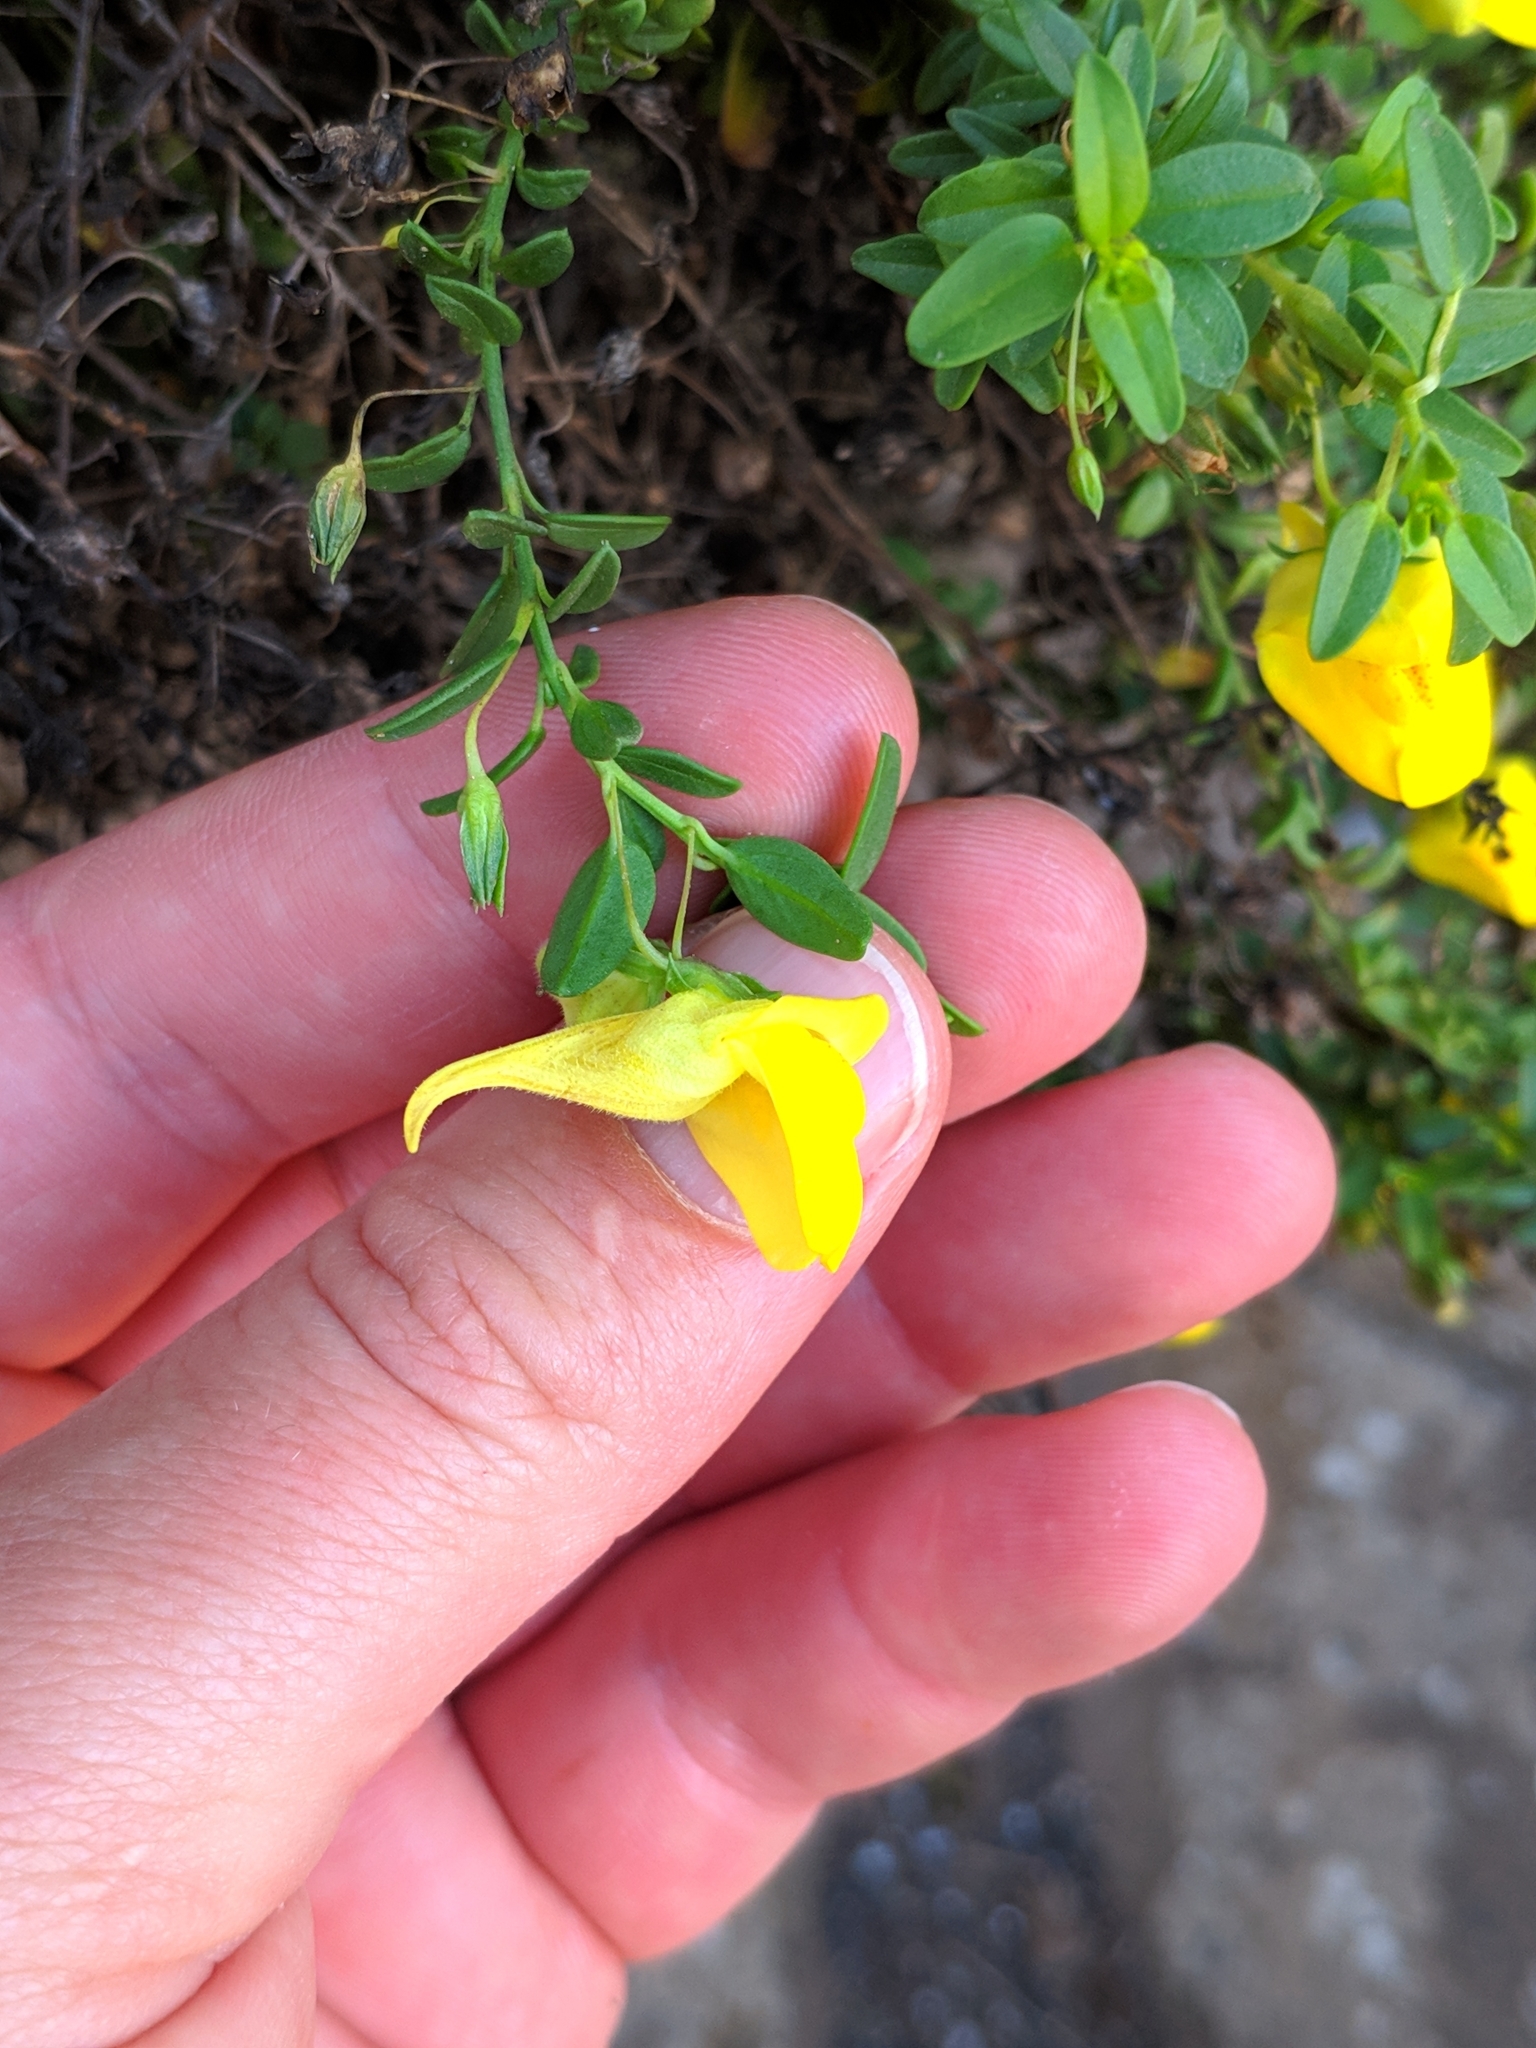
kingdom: Plantae
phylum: Tracheophyta
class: Magnoliopsida
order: Lamiales
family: Plantaginaceae
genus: Nanorrhinum
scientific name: Nanorrhinum heterophyllum
